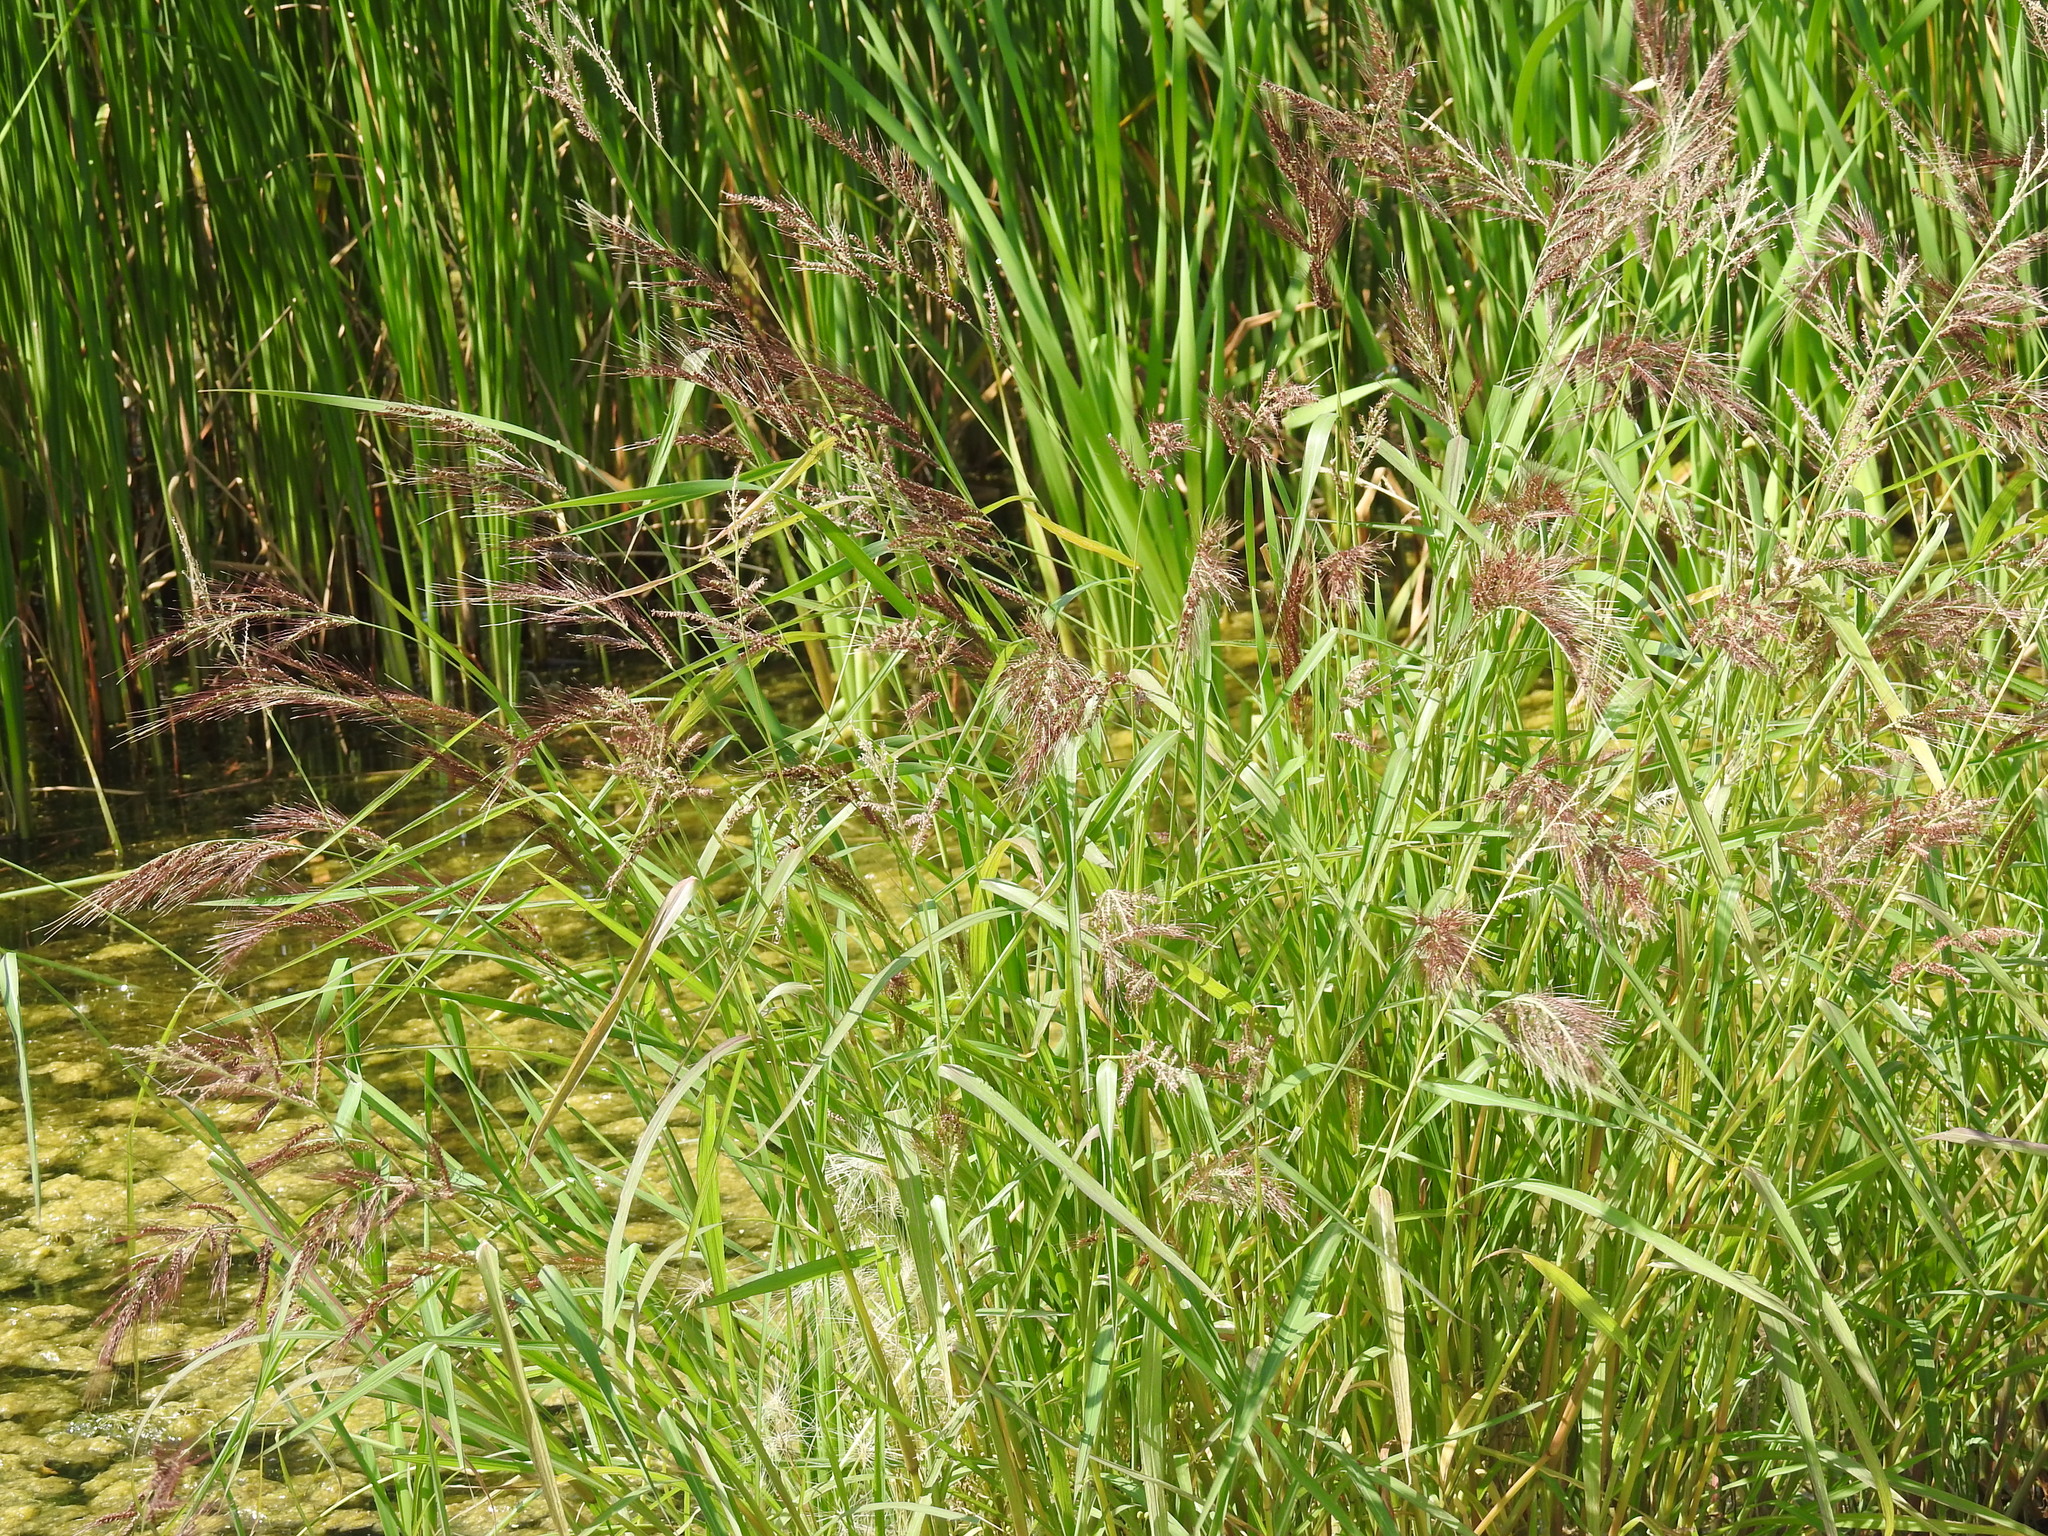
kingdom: Plantae
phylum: Tracheophyta
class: Liliopsida
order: Poales
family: Poaceae
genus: Echinochloa
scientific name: Echinochloa walteri
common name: Coast barnyard grass
